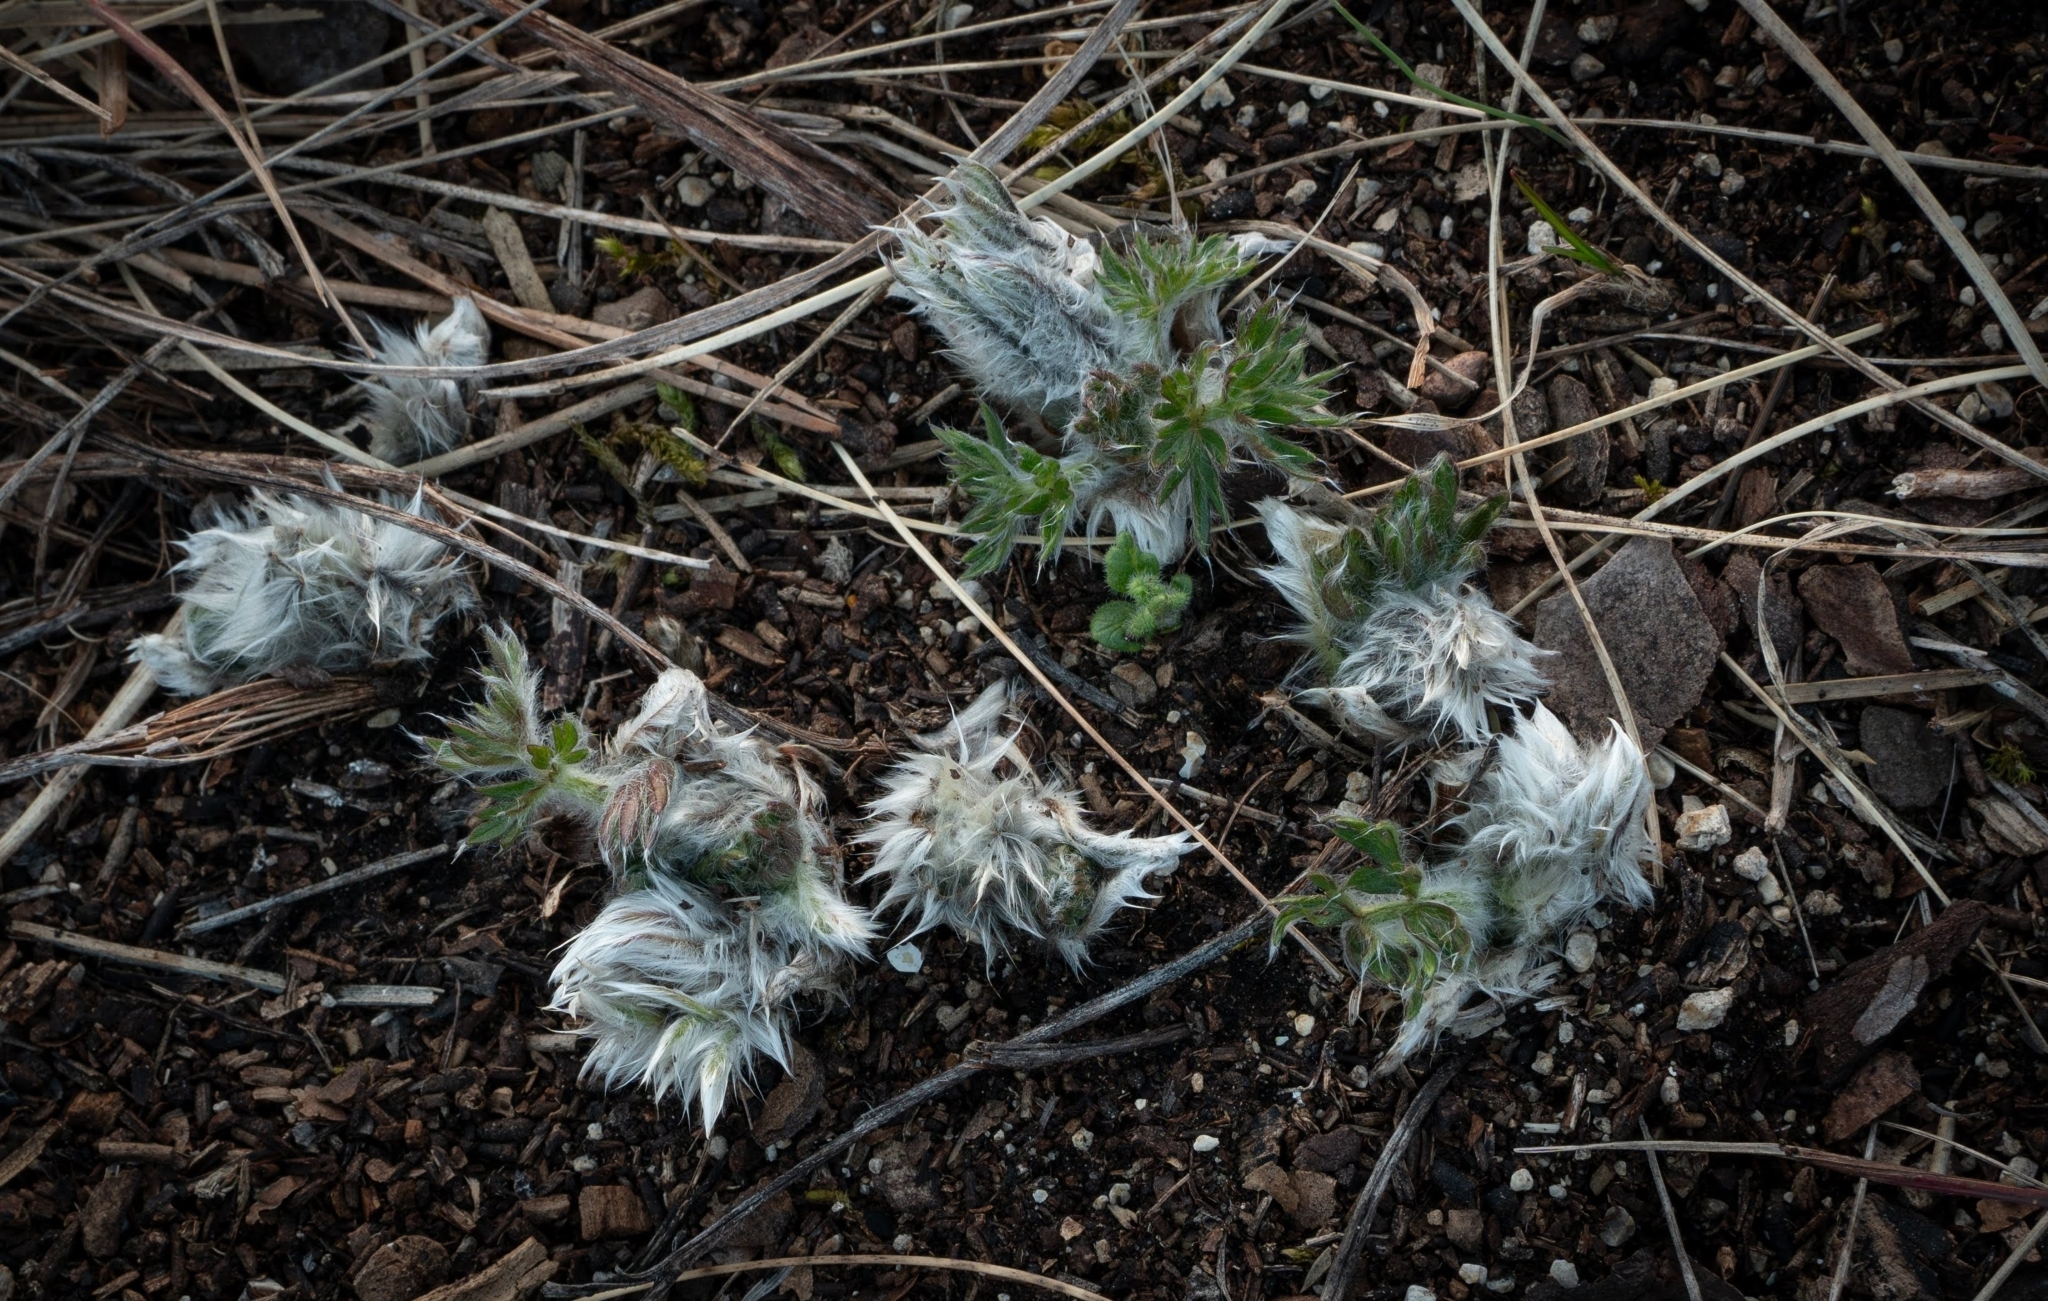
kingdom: Plantae
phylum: Tracheophyta
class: Magnoliopsida
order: Ranunculales
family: Ranunculaceae
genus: Pulsatilla
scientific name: Pulsatilla grandis
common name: Greater pasque flower
